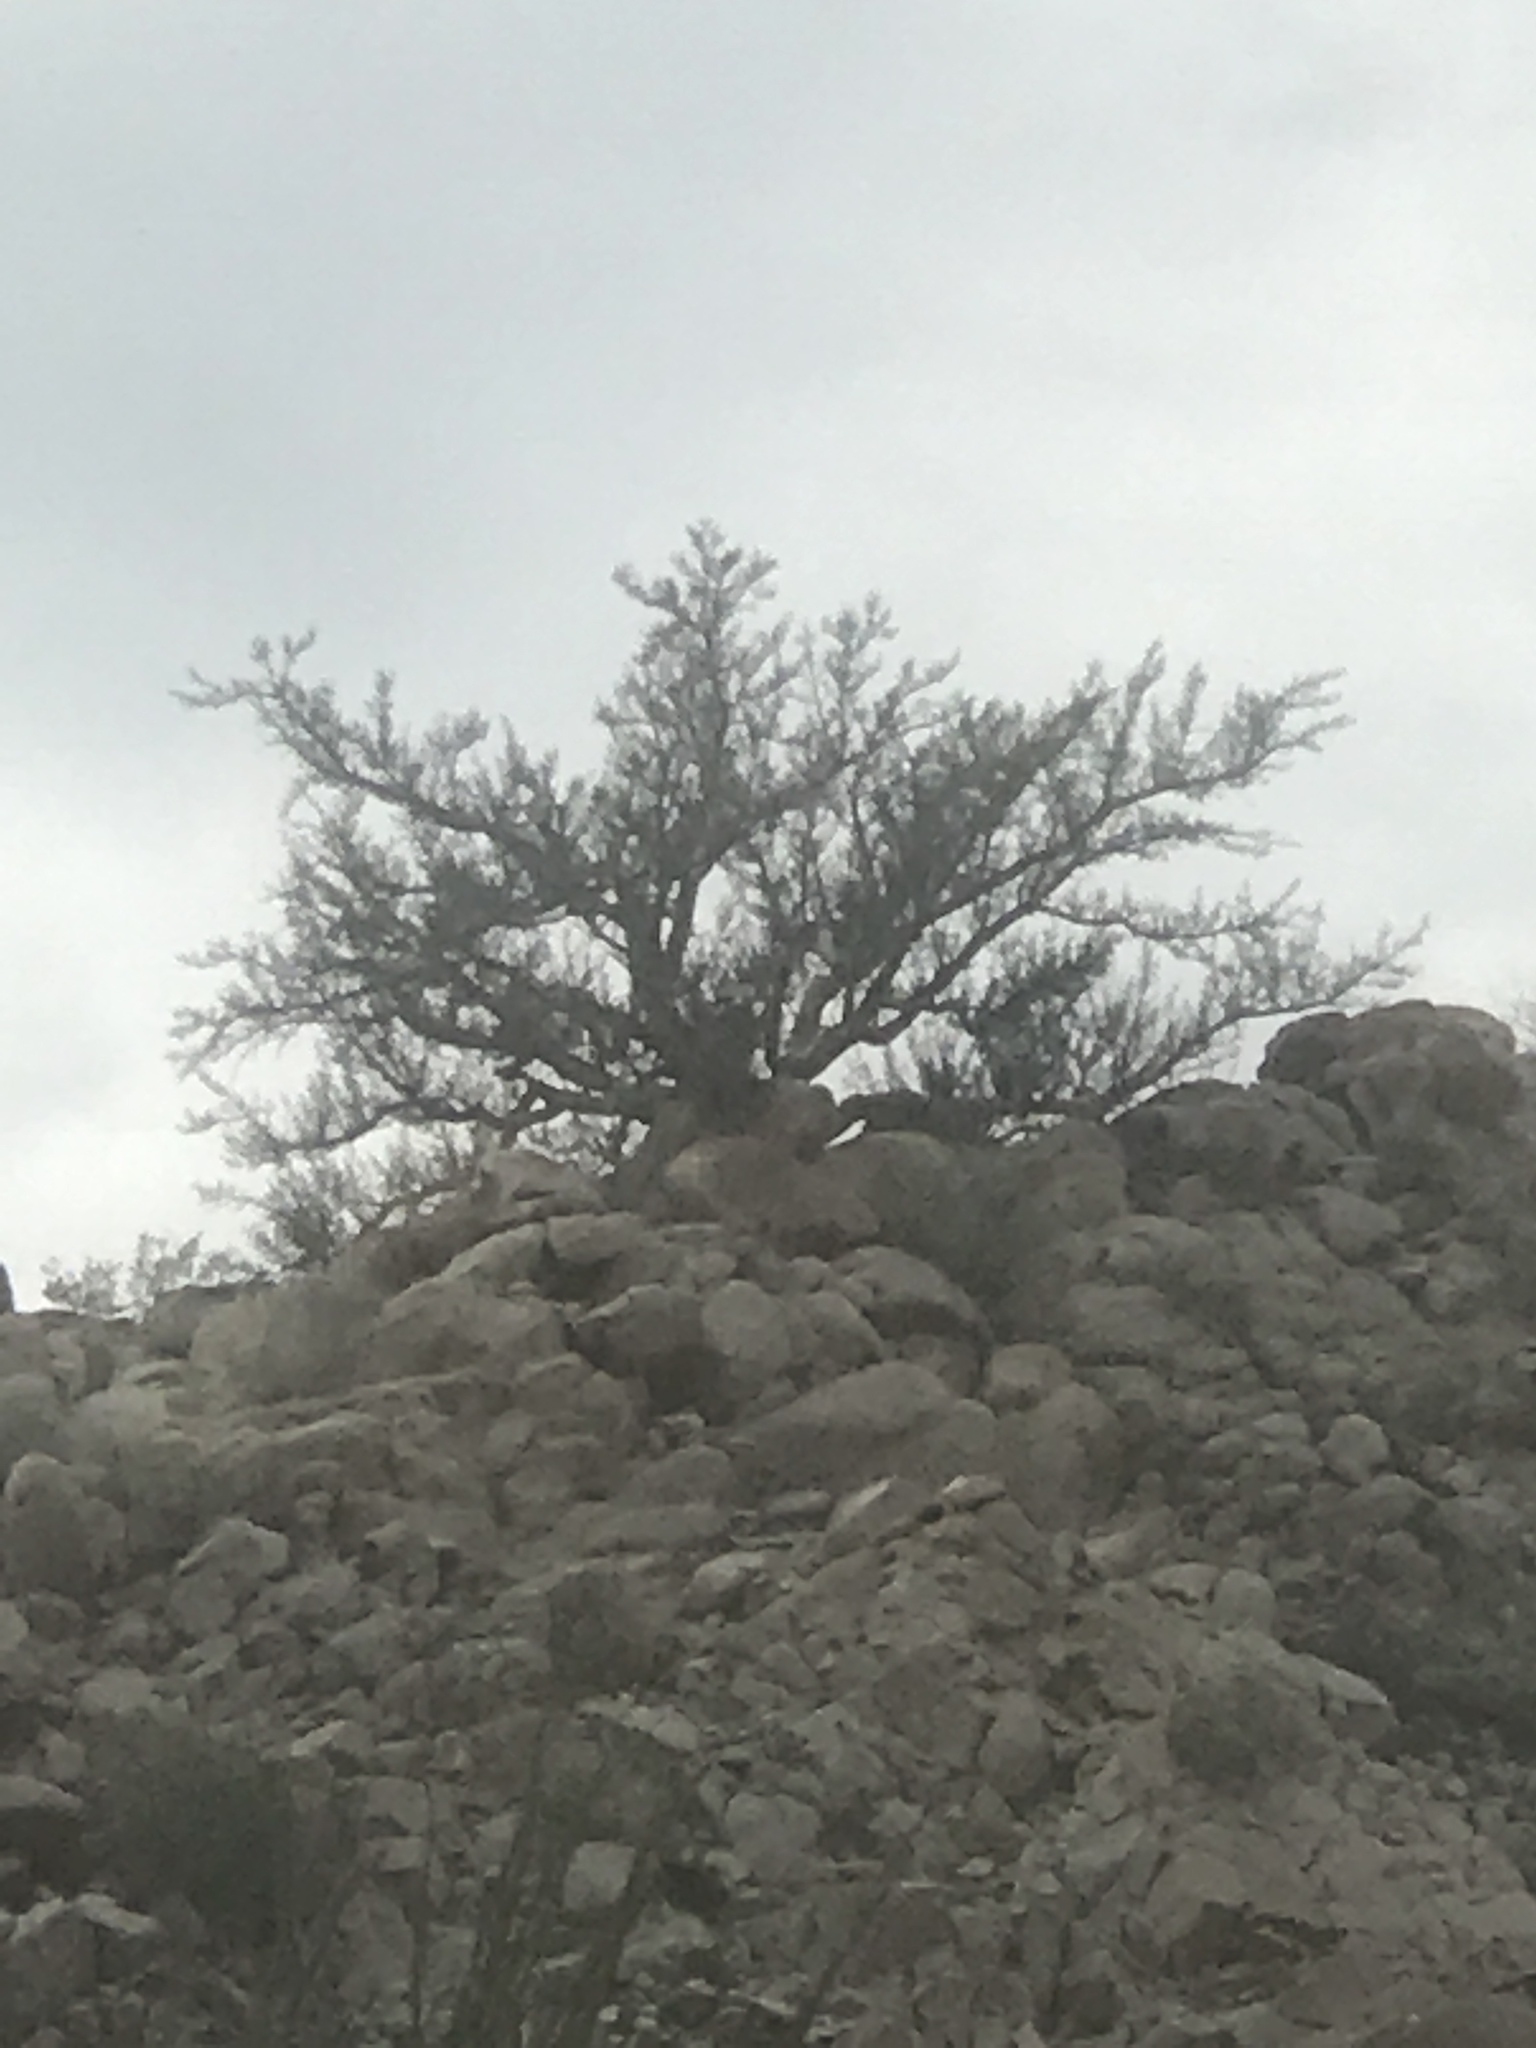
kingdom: Plantae
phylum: Tracheophyta
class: Magnoliopsida
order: Sapindales
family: Burseraceae
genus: Bursera
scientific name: Bursera microphylla
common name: Elephant tree
